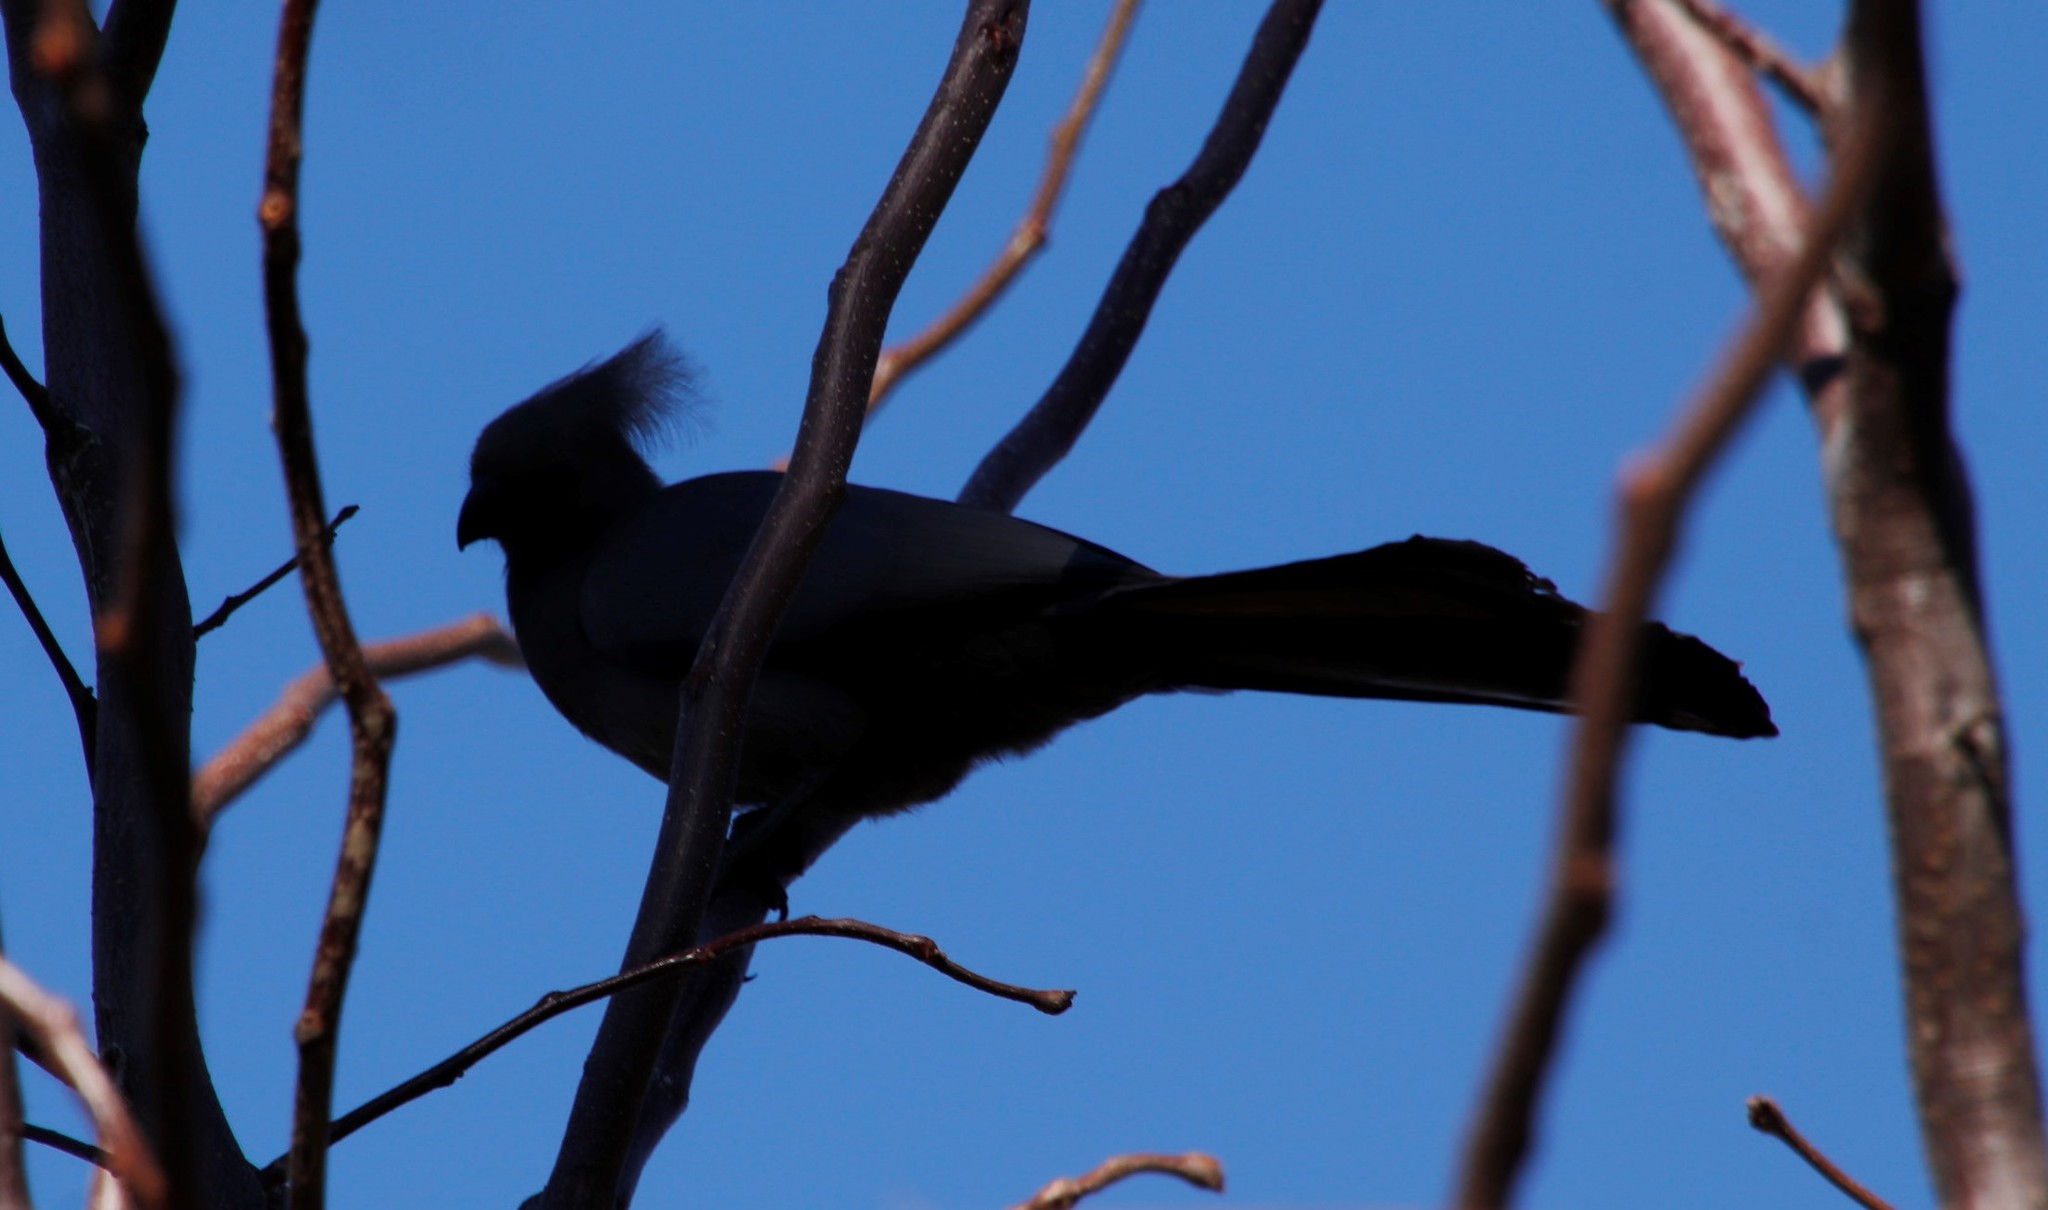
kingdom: Animalia
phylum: Chordata
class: Aves
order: Musophagiformes
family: Musophagidae
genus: Corythaixoides
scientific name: Corythaixoides concolor
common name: Grey go-away-bird
